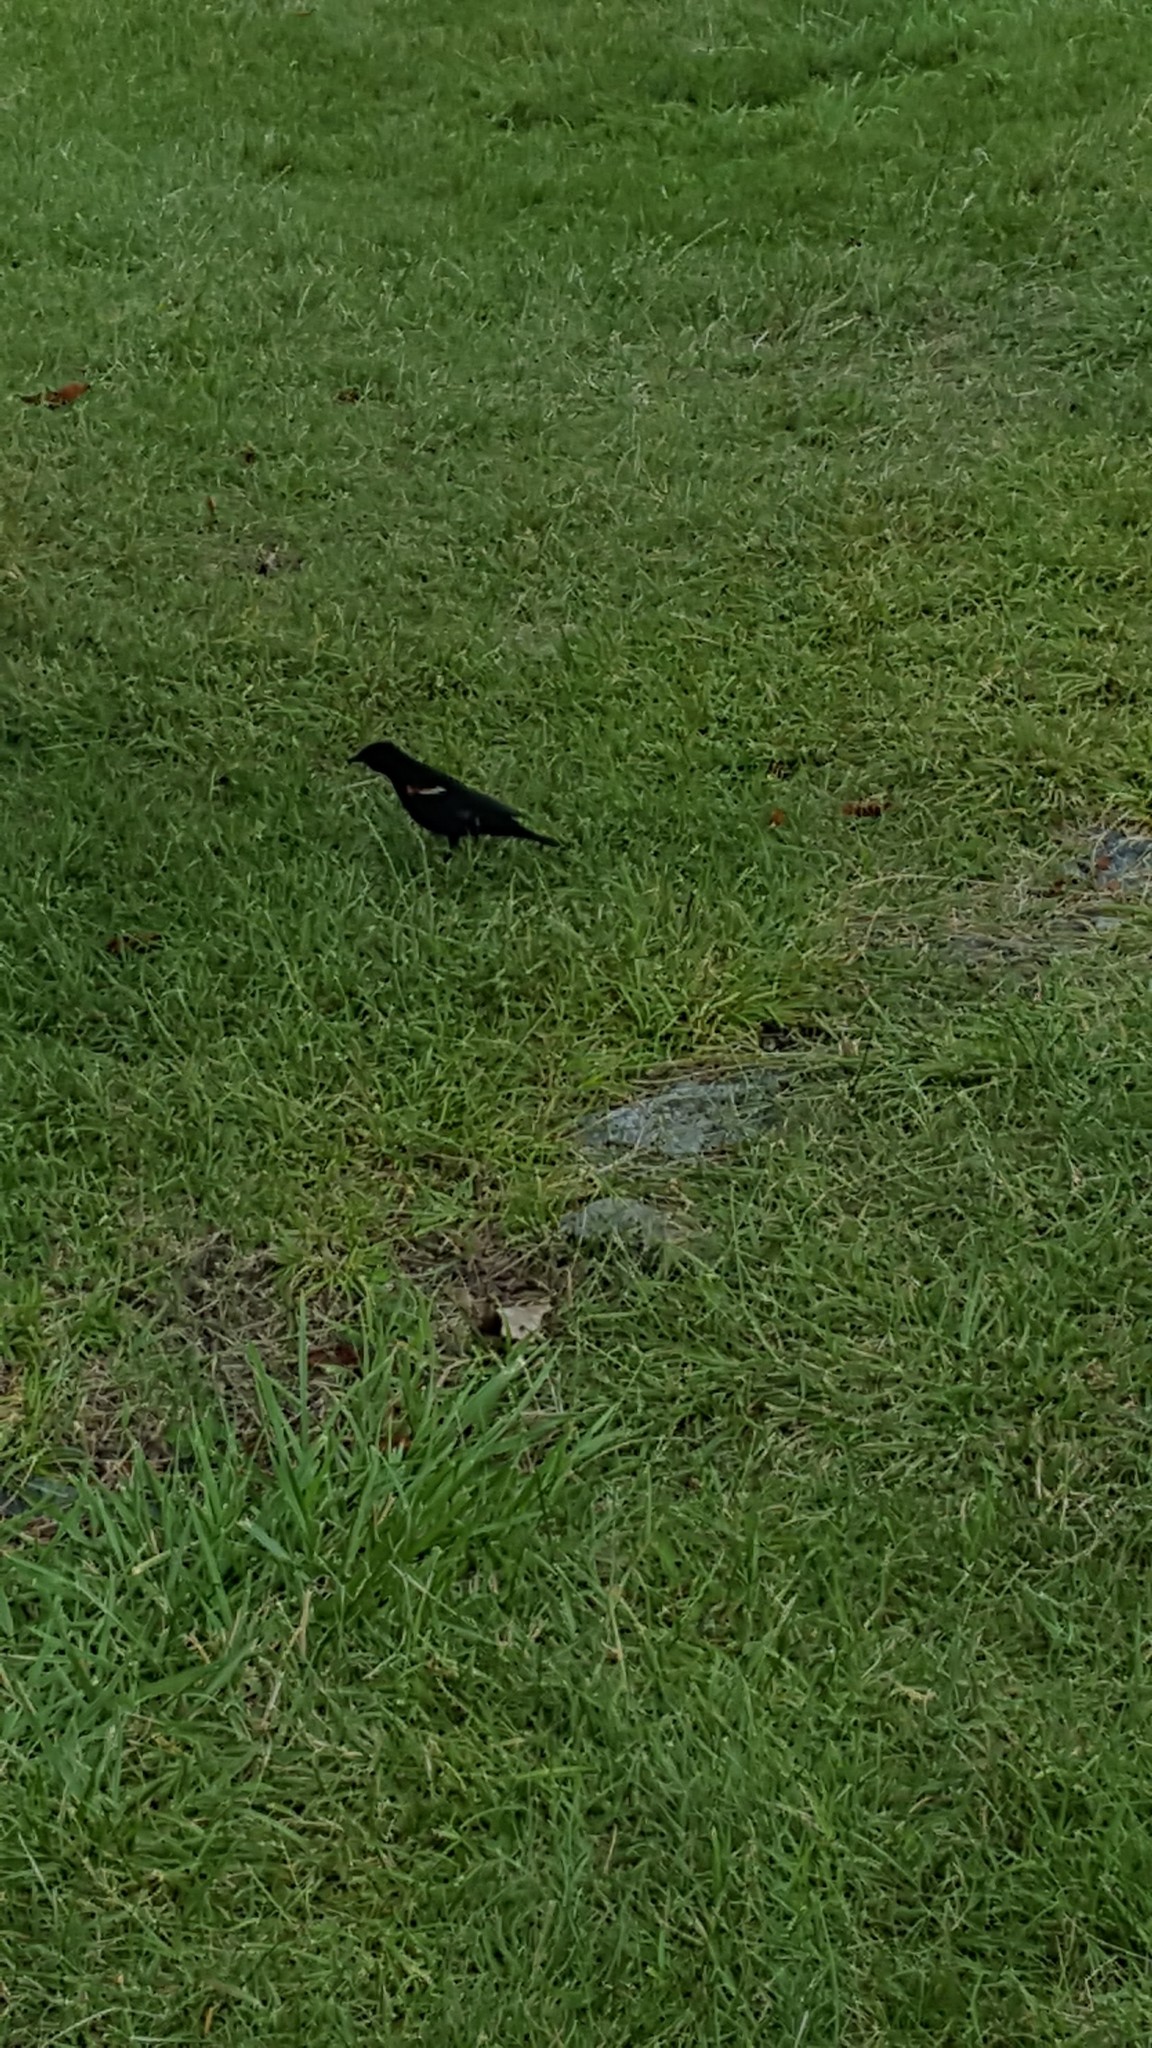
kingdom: Animalia
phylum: Chordata
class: Aves
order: Passeriformes
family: Icteridae
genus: Agelaius
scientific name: Agelaius phoeniceus
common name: Red-winged blackbird
